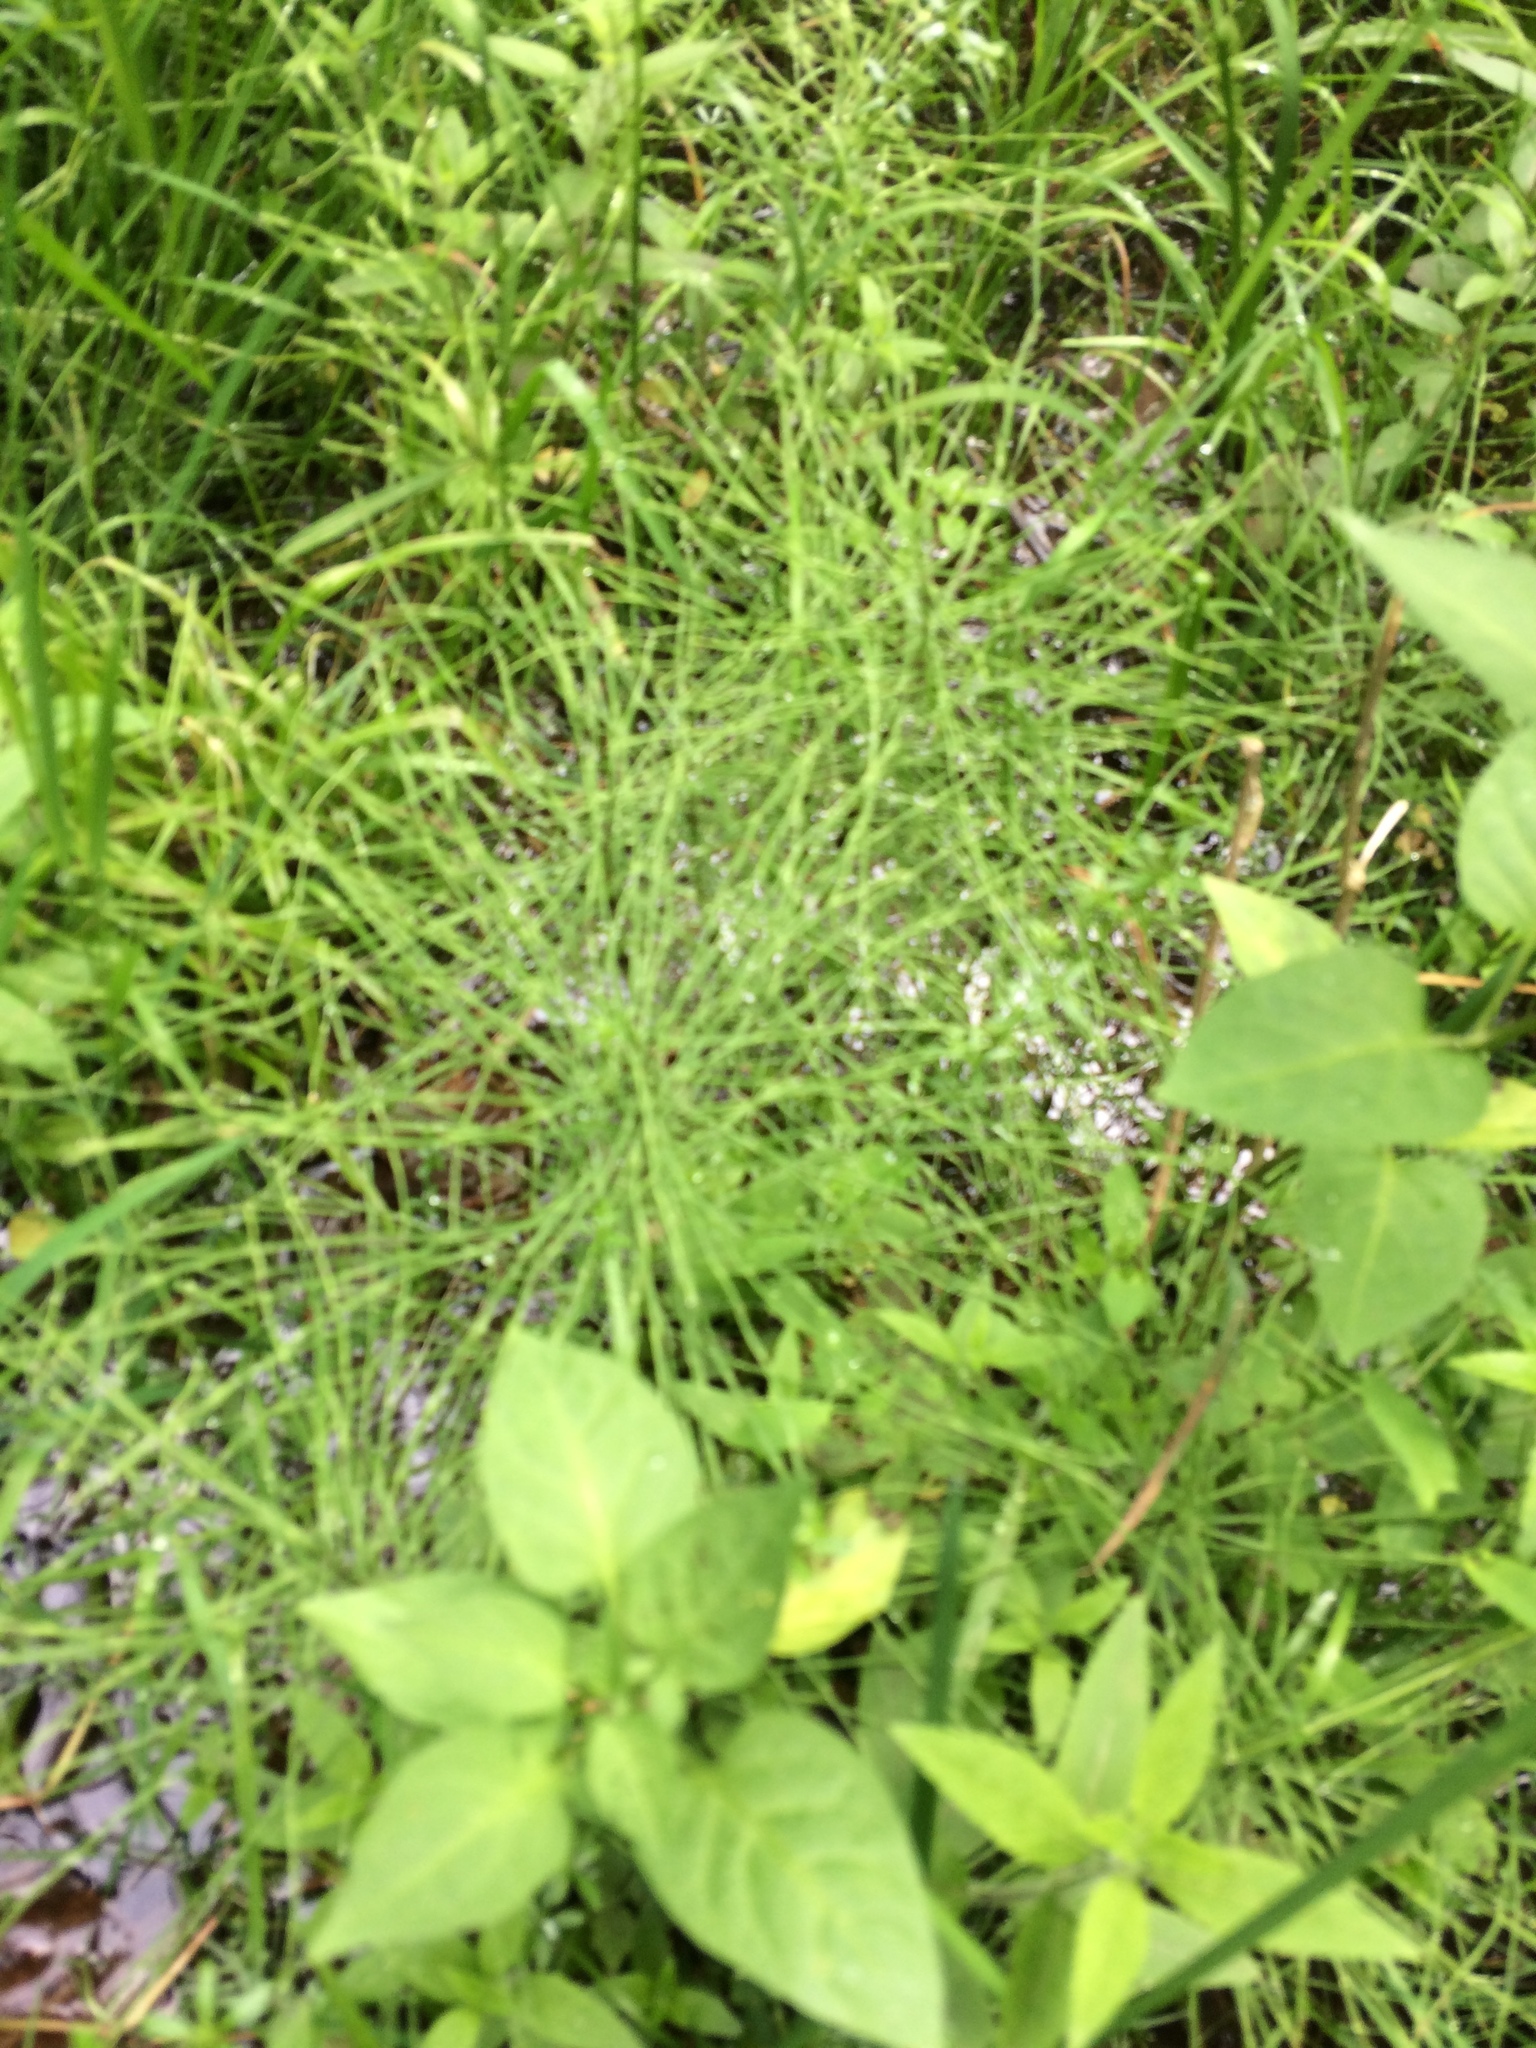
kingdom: Plantae
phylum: Tracheophyta
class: Polypodiopsida
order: Equisetales
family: Equisetaceae
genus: Equisetum
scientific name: Equisetum arvense
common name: Field horsetail
